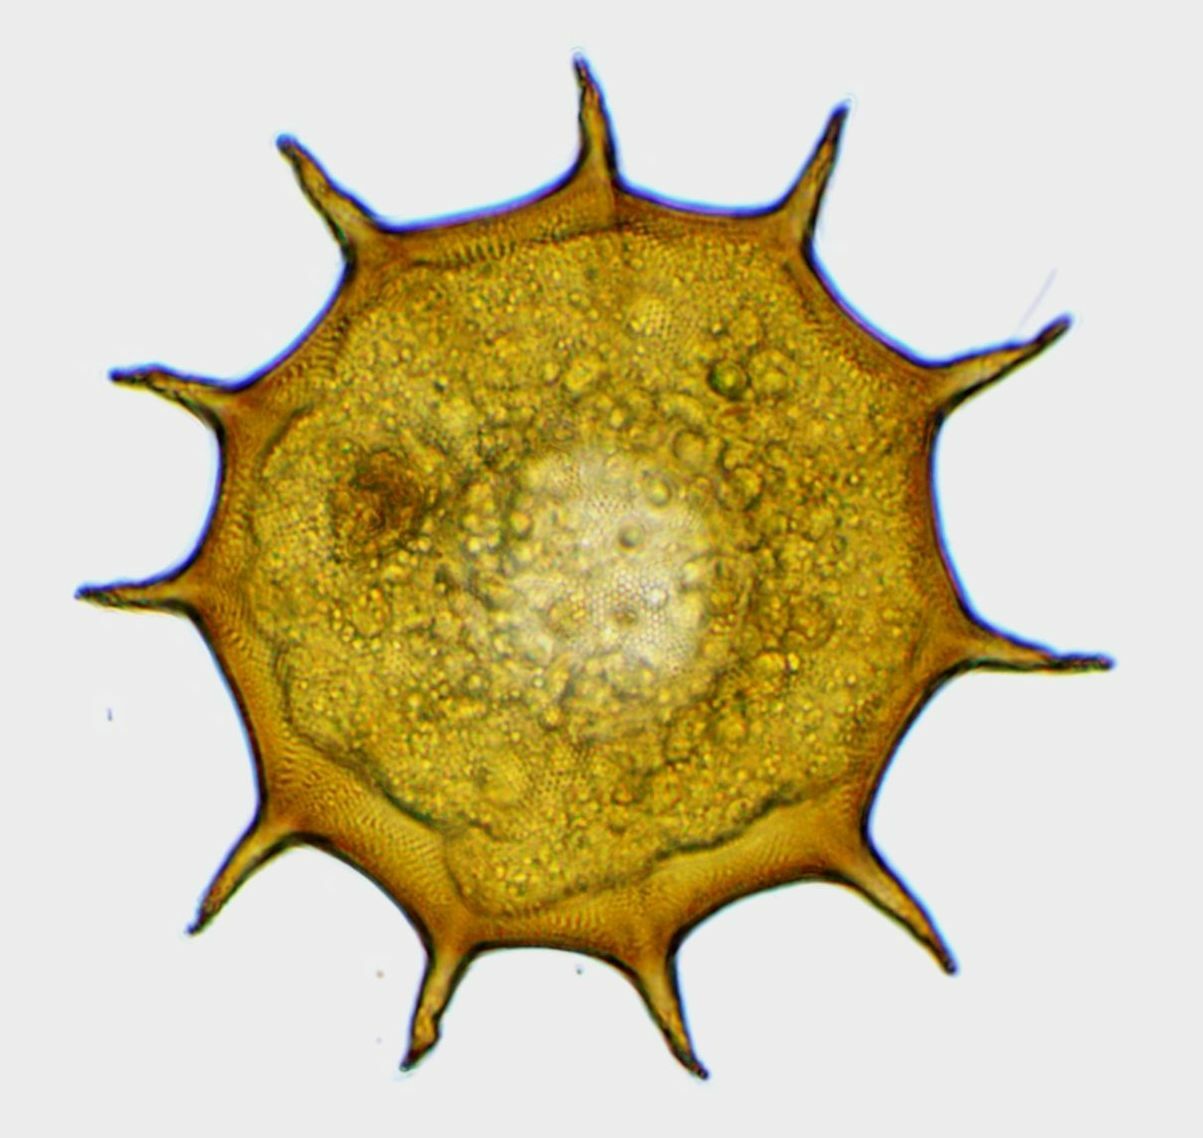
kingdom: Protozoa
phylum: Amoebozoa
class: Lobosa
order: Arcellinida
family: Arcellidae
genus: Galeripora
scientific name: Galeripora
